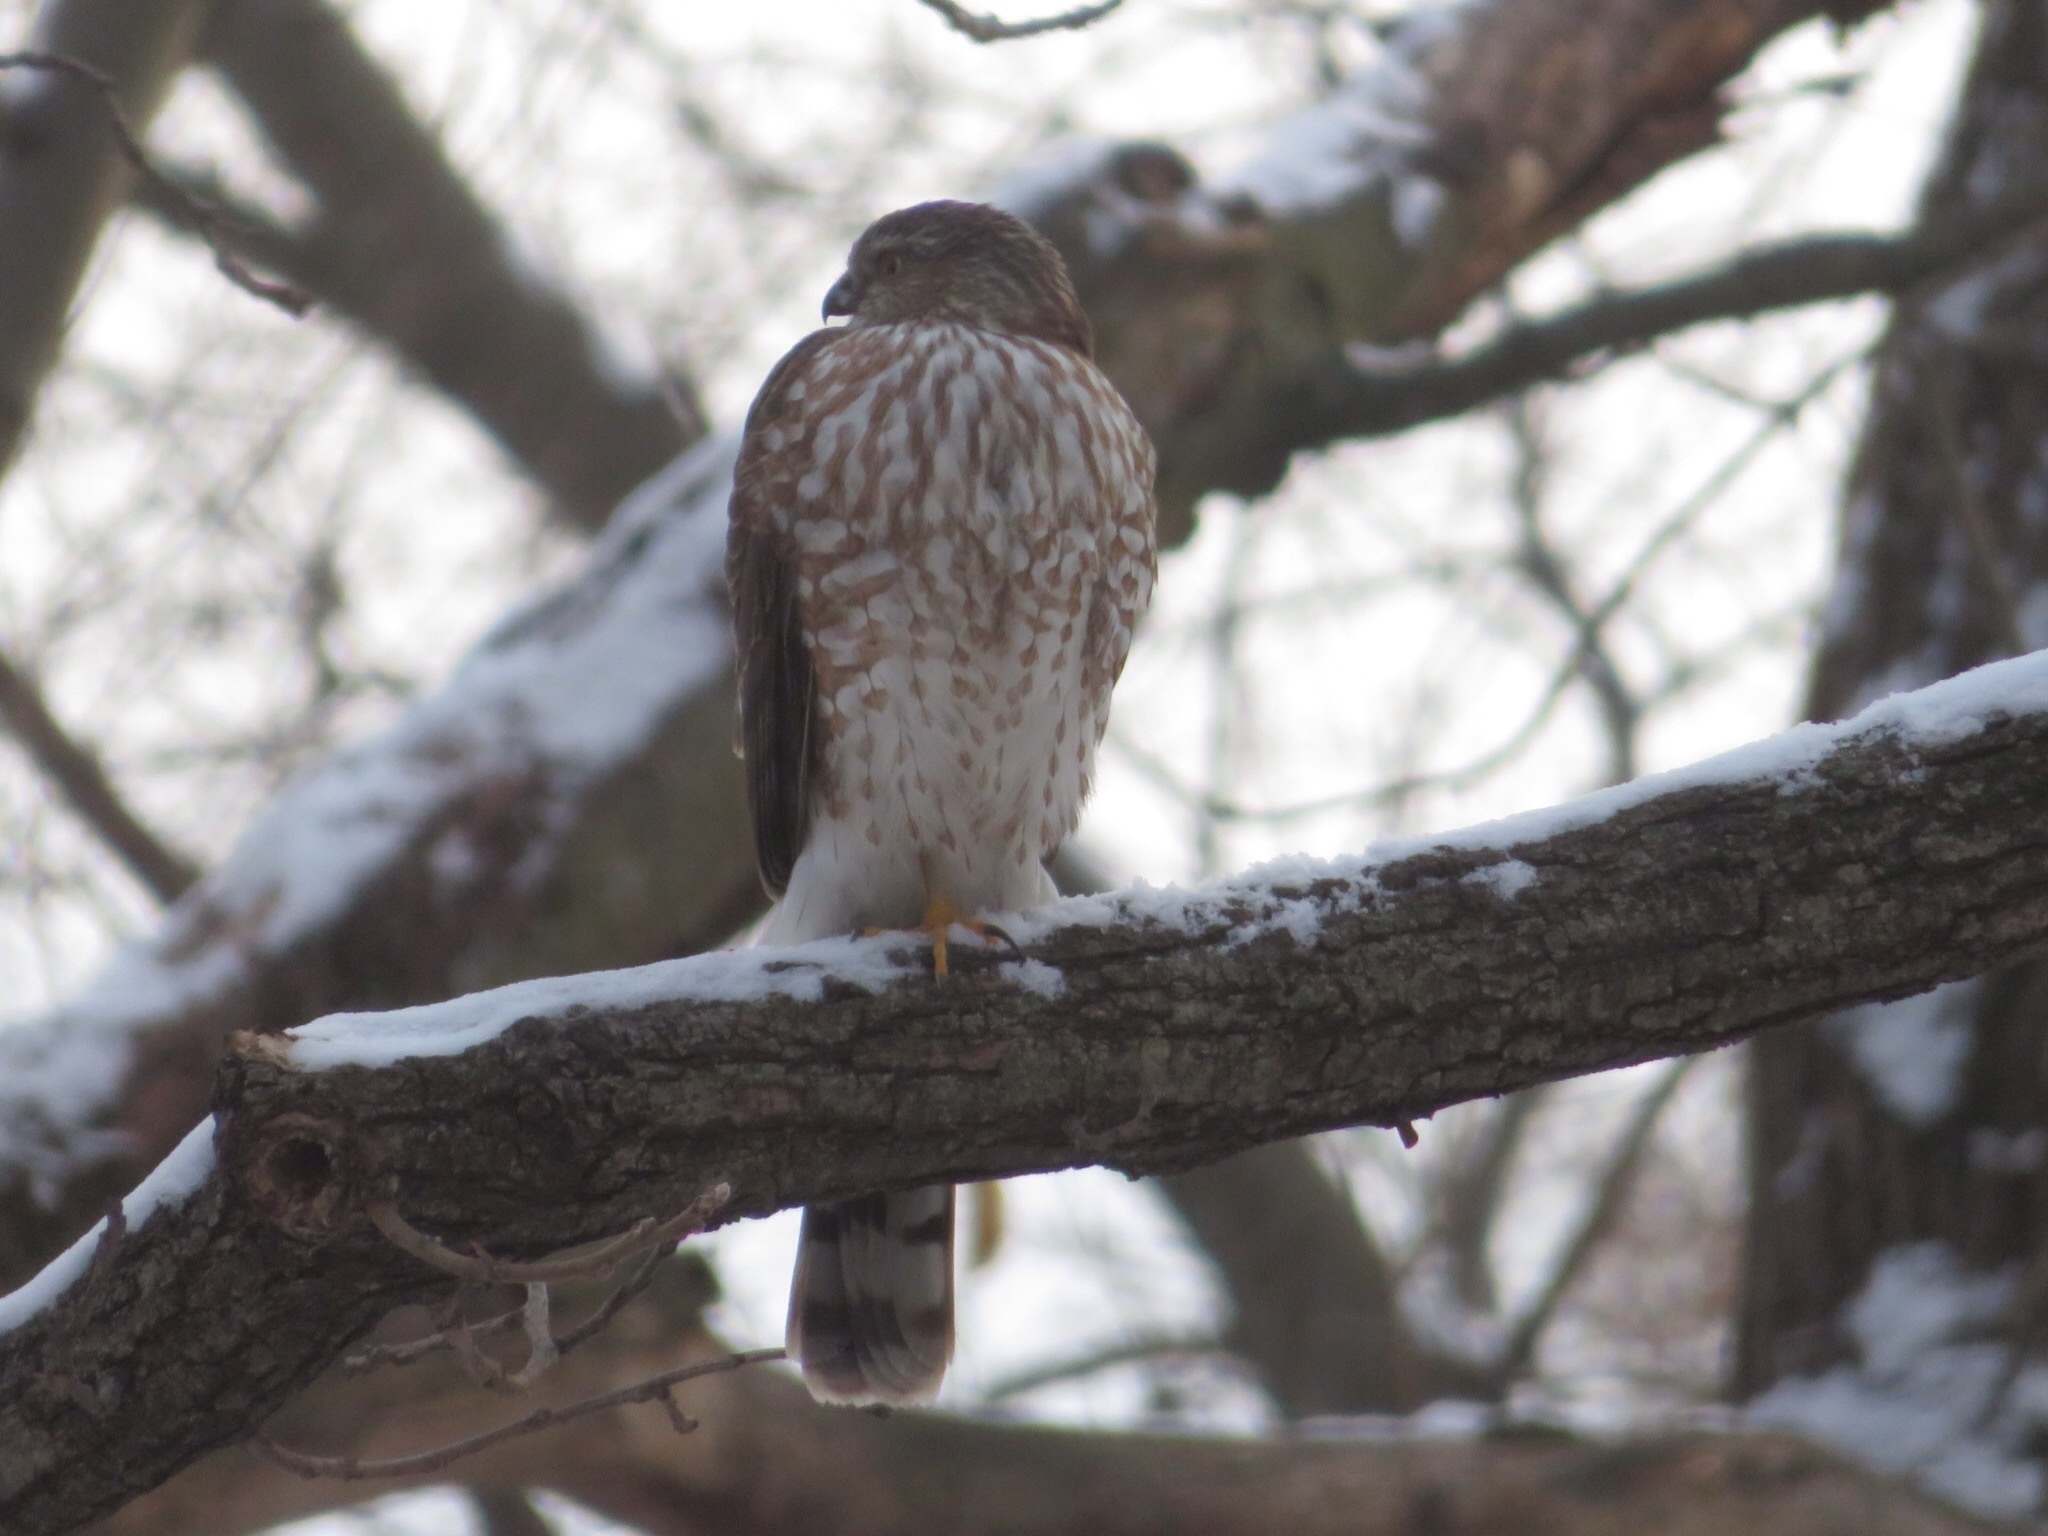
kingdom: Animalia
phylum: Chordata
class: Aves
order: Accipitriformes
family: Accipitridae
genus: Accipiter
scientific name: Accipiter striatus
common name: Sharp-shinned hawk
